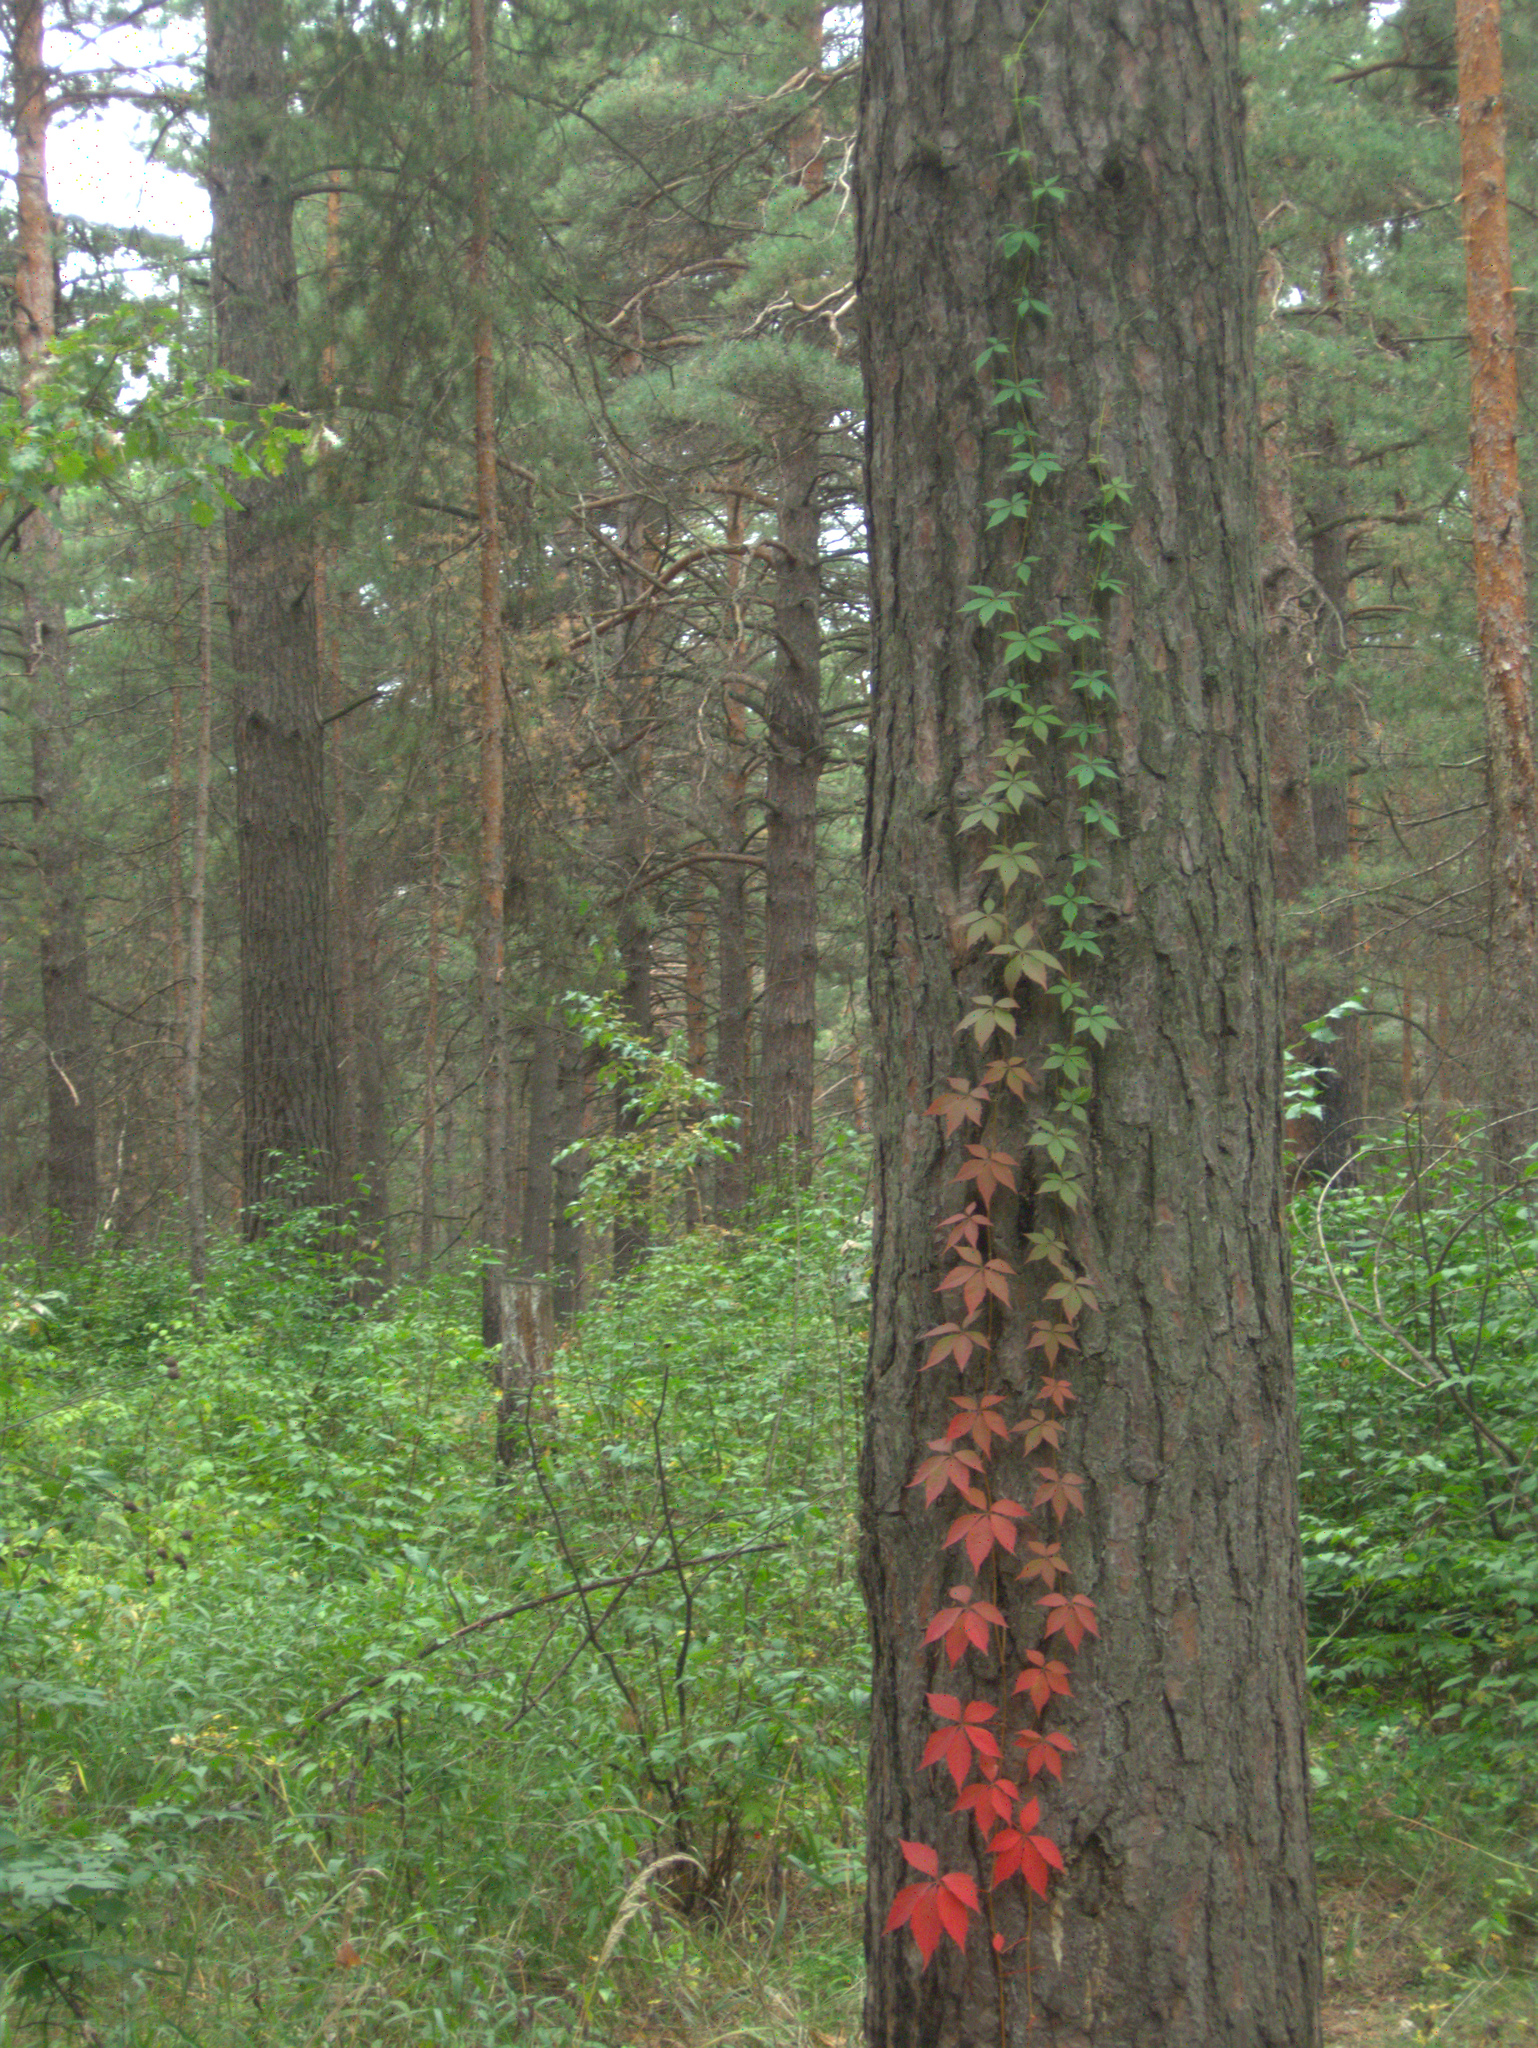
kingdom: Plantae
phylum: Tracheophyta
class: Magnoliopsida
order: Vitales
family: Vitaceae
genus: Parthenocissus
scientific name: Parthenocissus inserta
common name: False virginia-creeper
